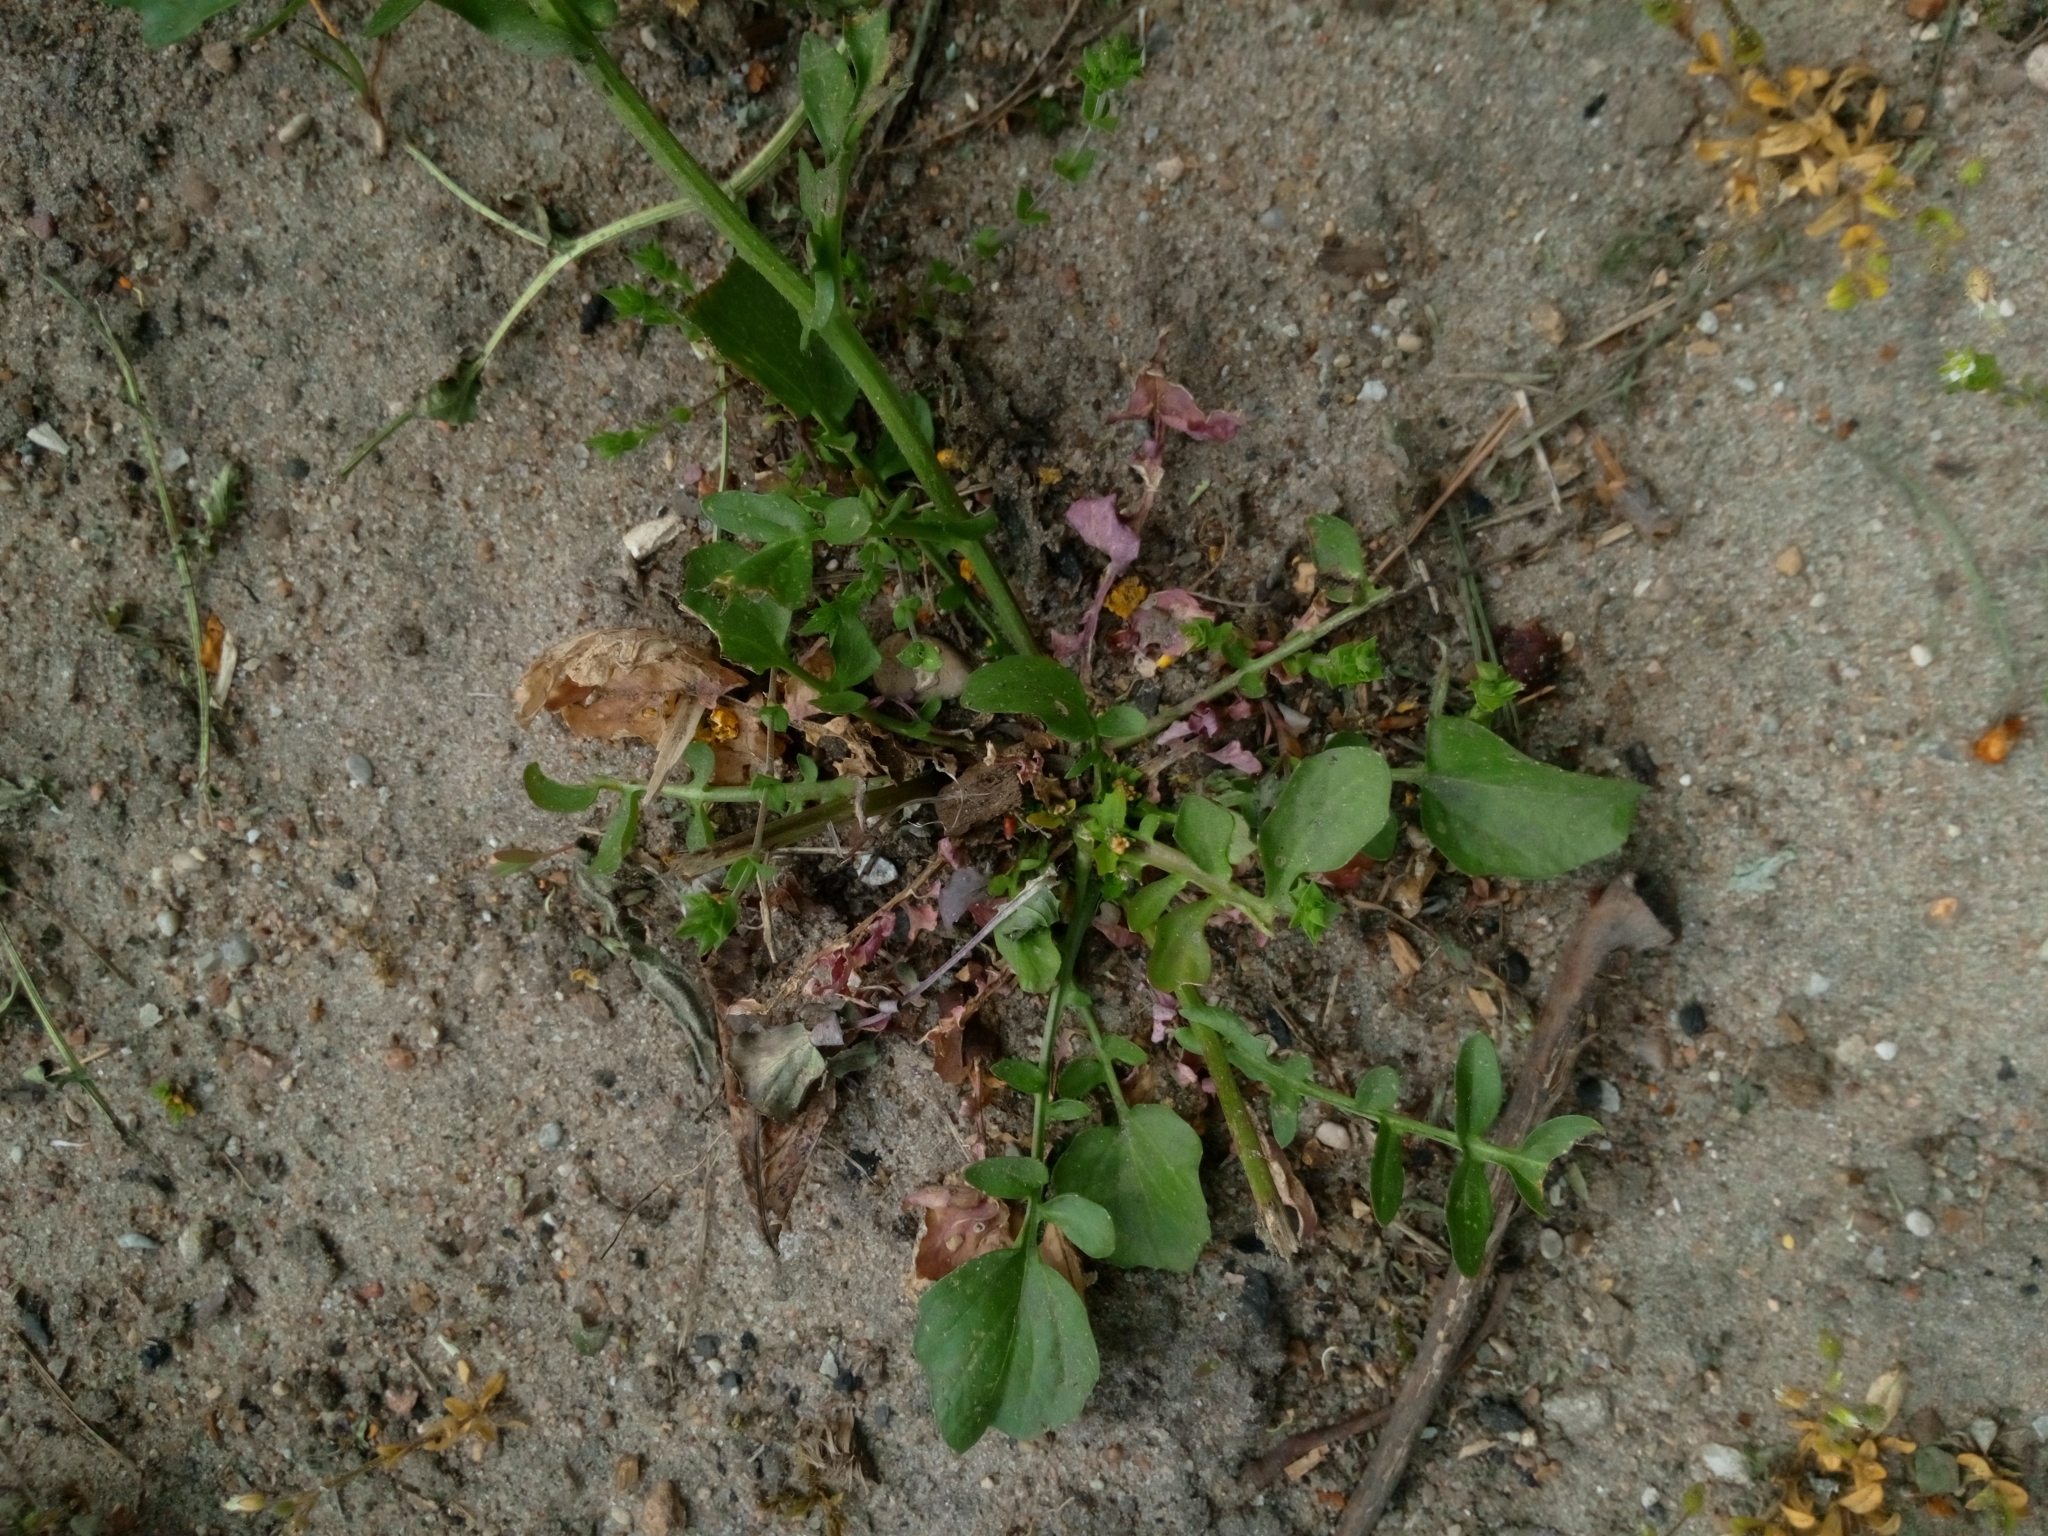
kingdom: Plantae
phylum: Tracheophyta
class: Magnoliopsida
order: Brassicales
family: Brassicaceae
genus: Barbarea
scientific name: Barbarea vulgaris
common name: Cressy-greens
